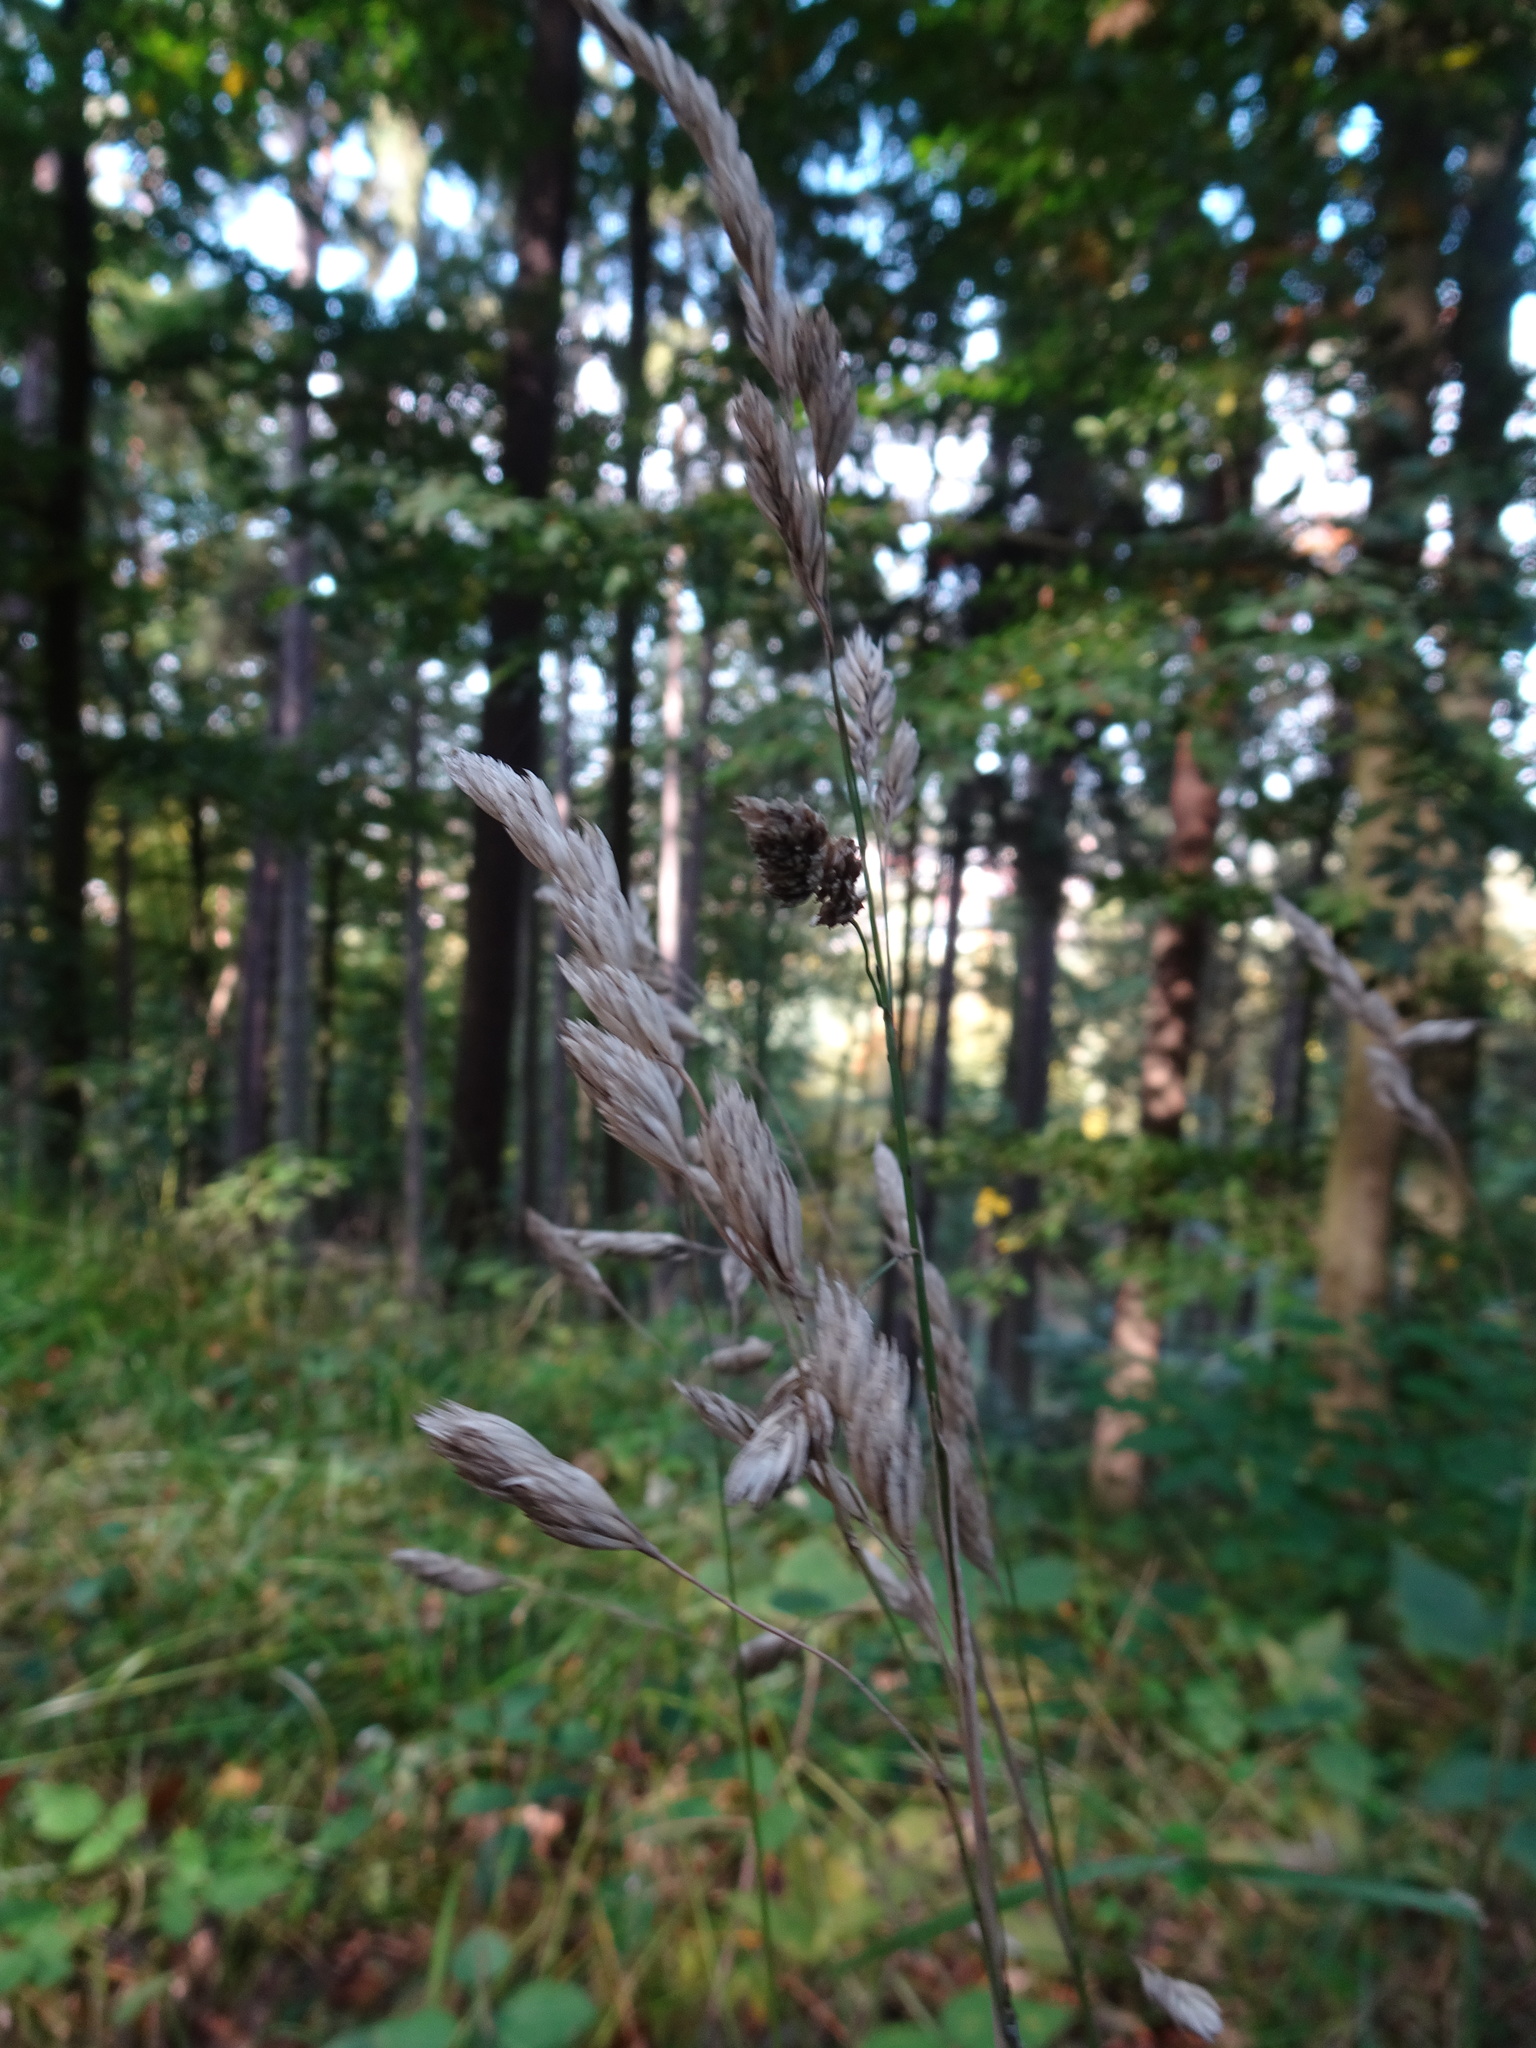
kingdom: Plantae
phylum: Tracheophyta
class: Liliopsida
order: Poales
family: Poaceae
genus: Dactylis
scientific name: Dactylis glomerata
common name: Orchardgrass
